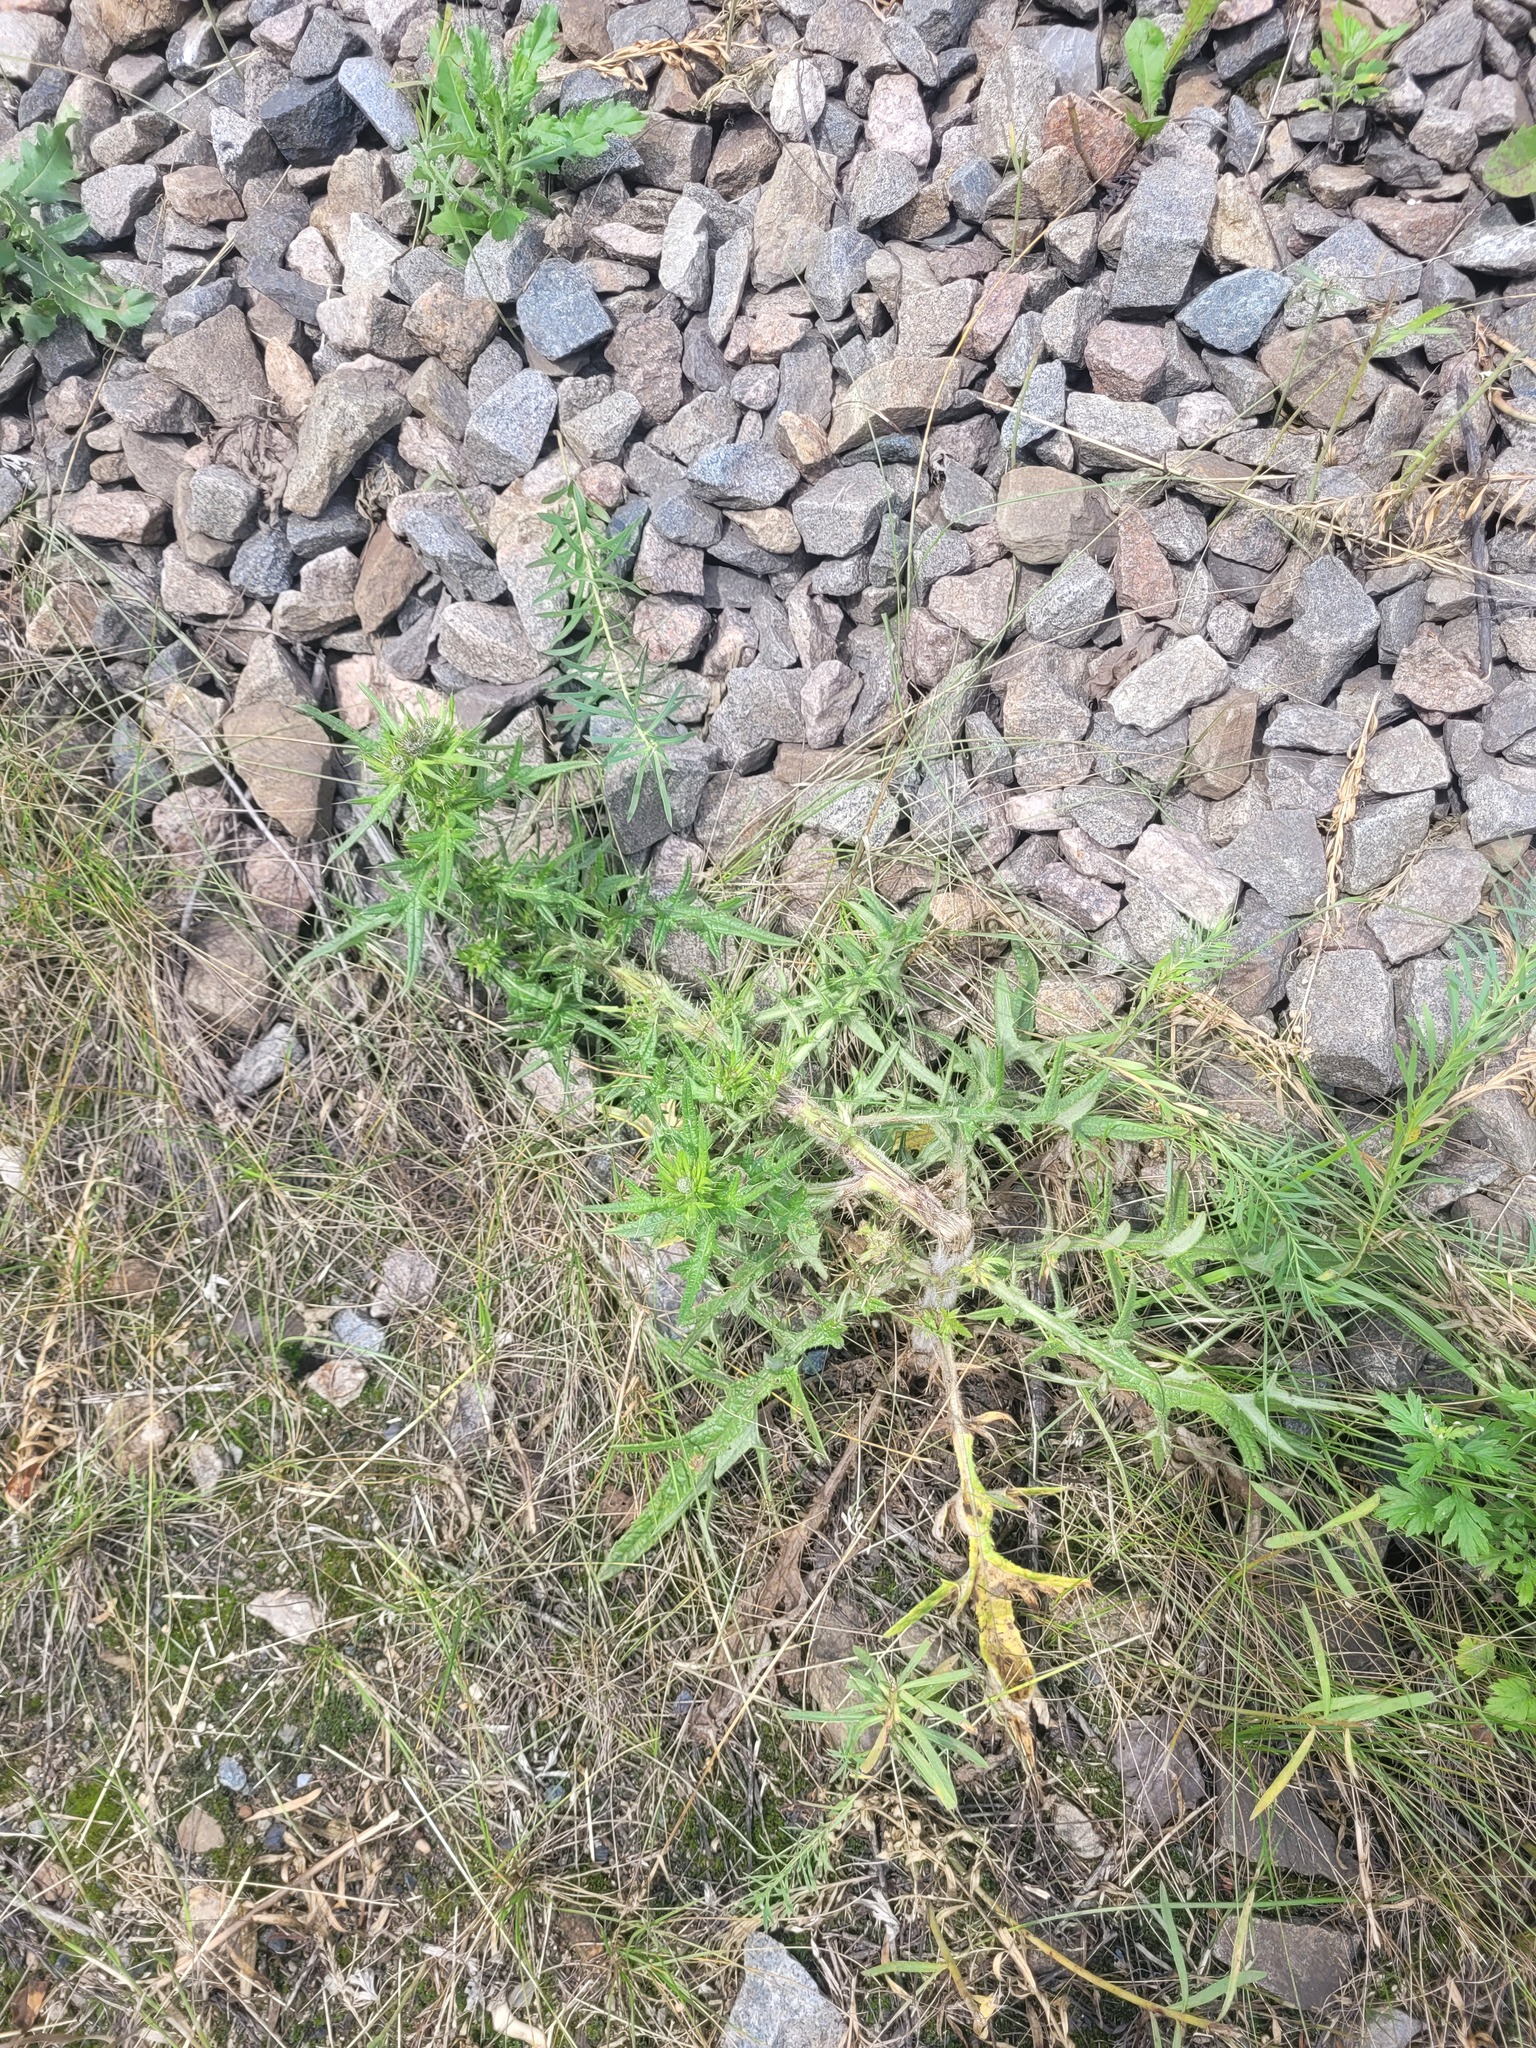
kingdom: Plantae
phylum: Tracheophyta
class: Magnoliopsida
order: Asterales
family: Asteraceae
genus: Cirsium
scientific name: Cirsium vulgare
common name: Bull thistle
